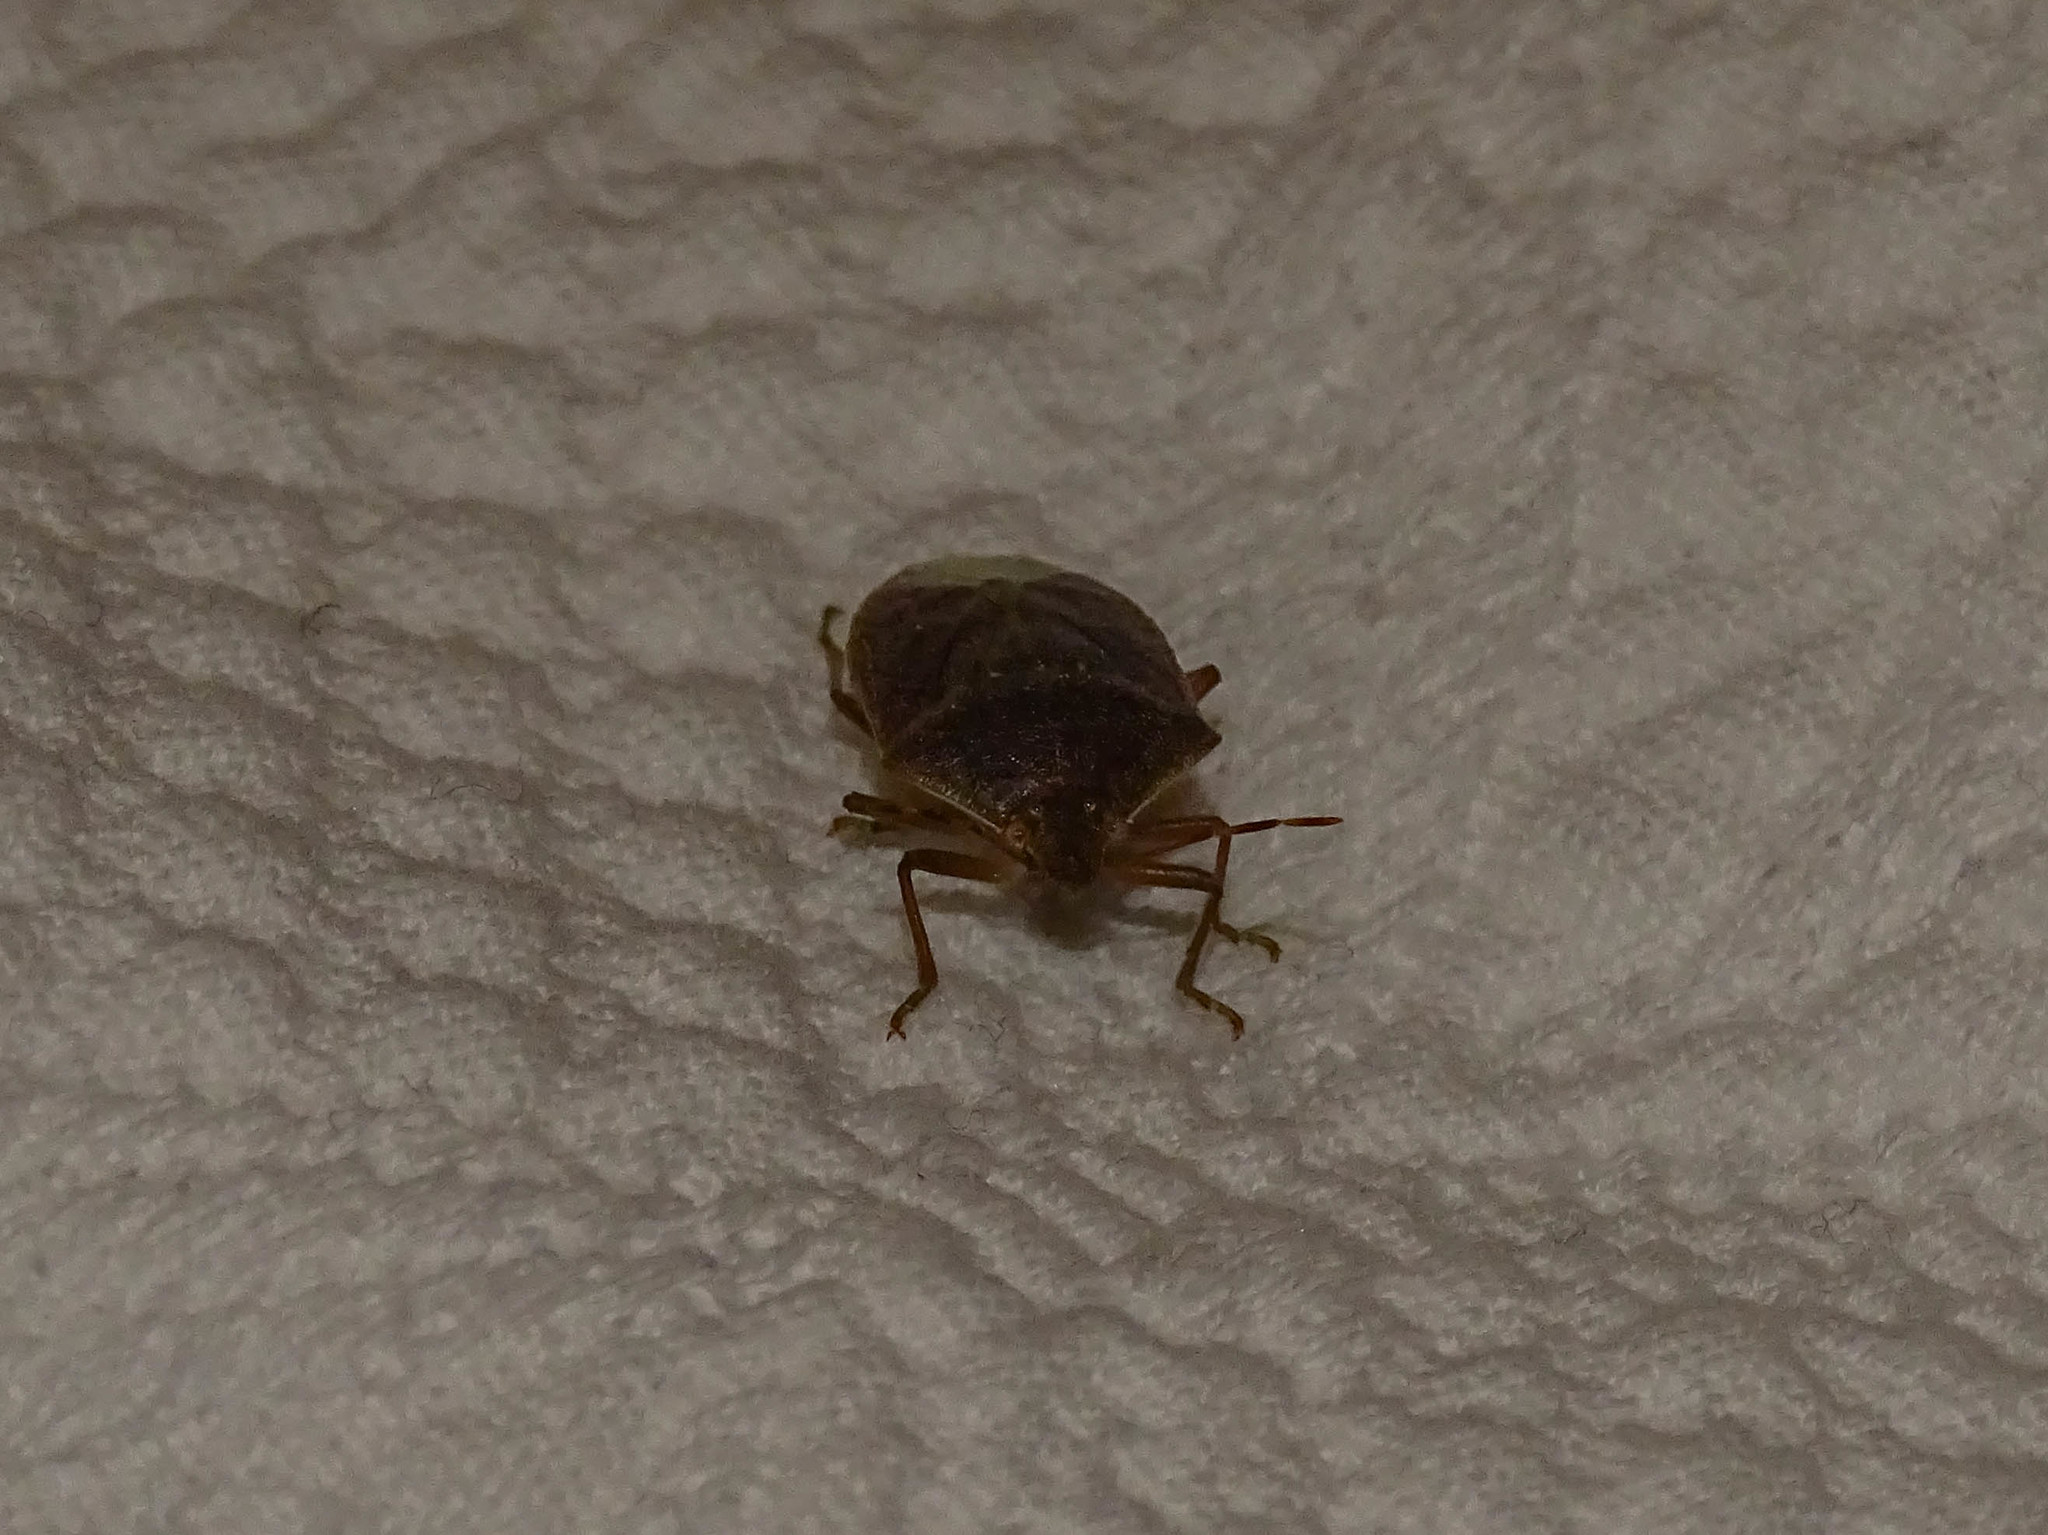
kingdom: Animalia
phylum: Arthropoda
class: Insecta
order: Hemiptera
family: Pentatomidae
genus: Nezara
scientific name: Nezara viridula
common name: Southern green stink bug
